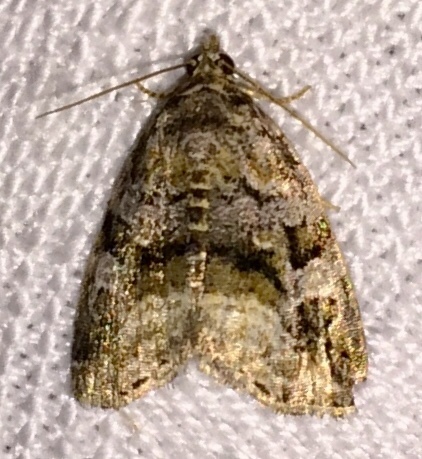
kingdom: Animalia
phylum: Arthropoda
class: Insecta
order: Lepidoptera
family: Noctuidae
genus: Protodeltote
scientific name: Protodeltote muscosula
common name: Large mossy glyph
